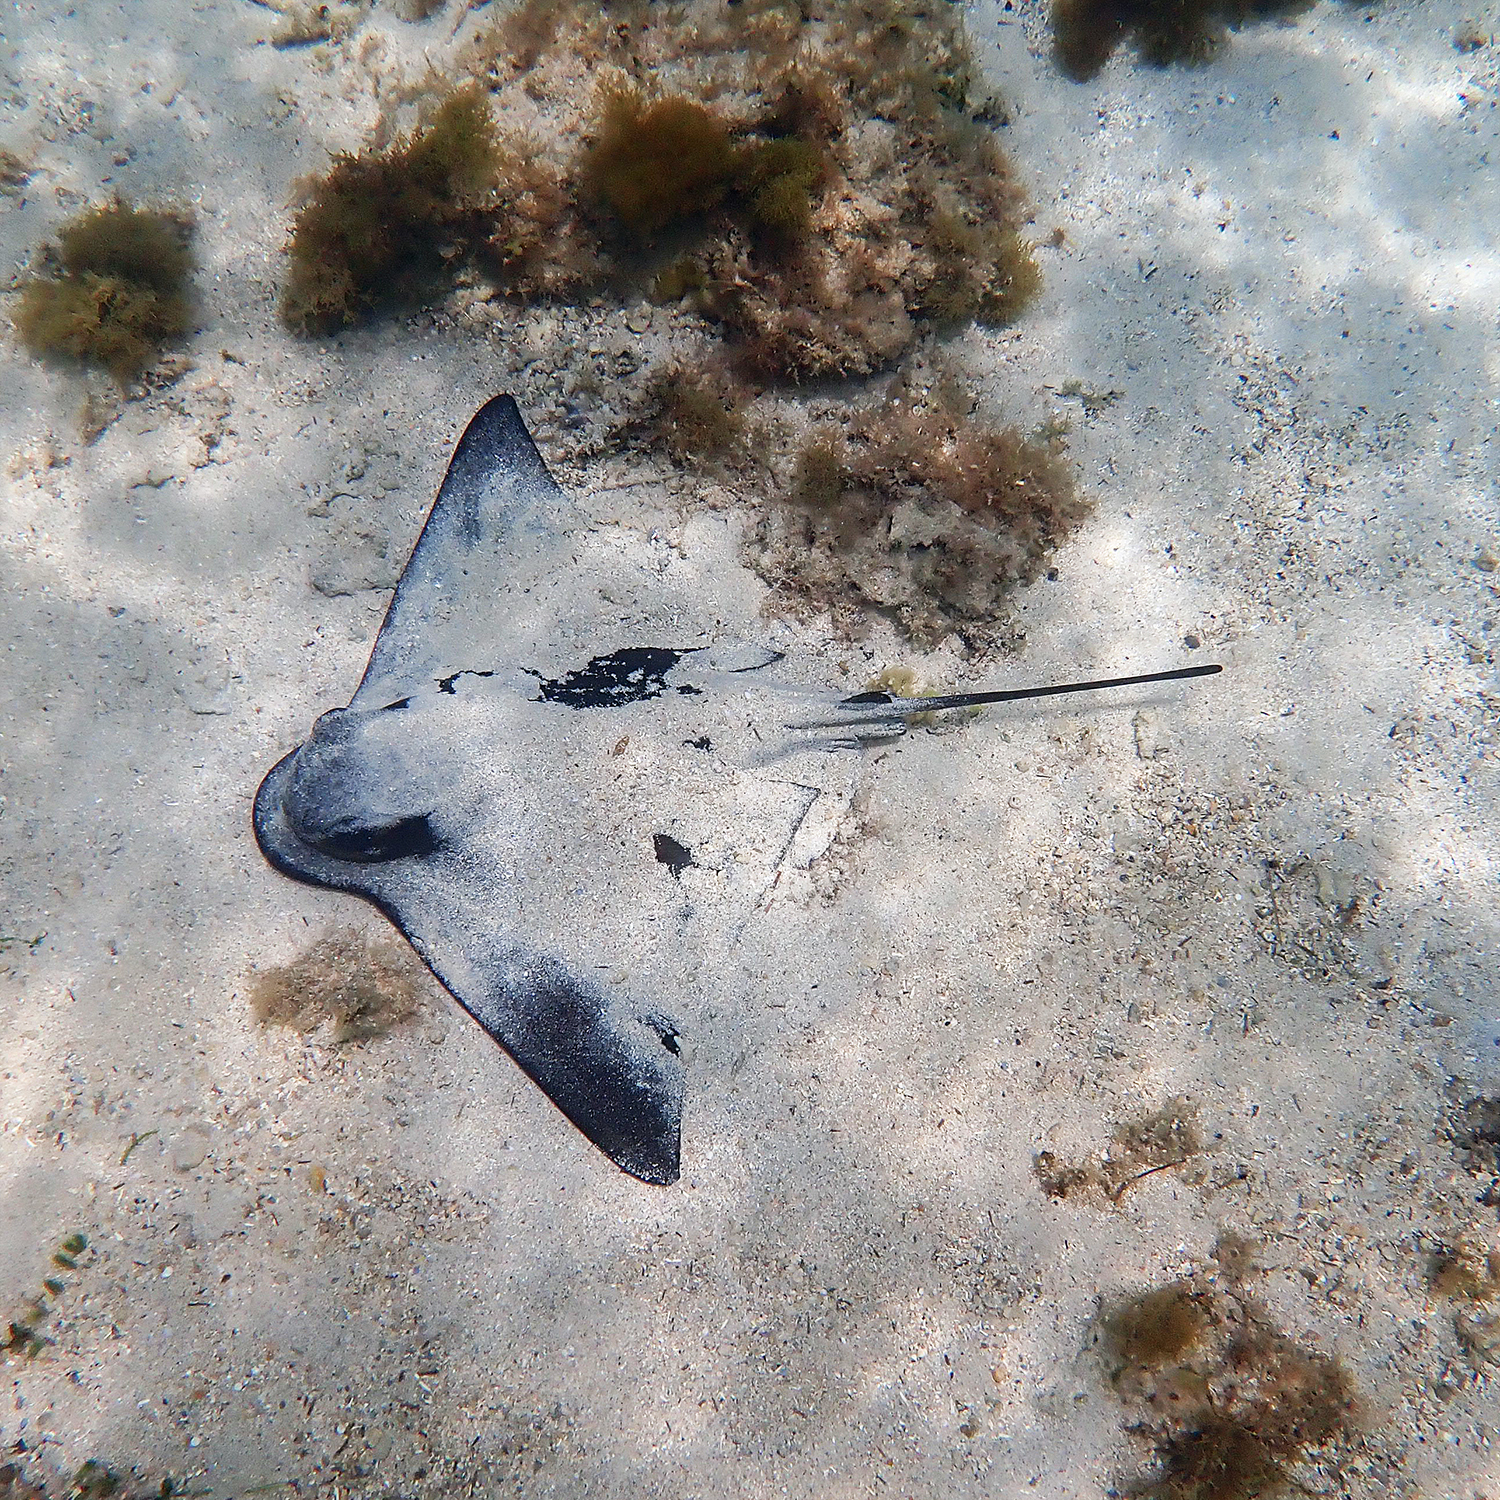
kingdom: Animalia
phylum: Chordata
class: Elasmobranchii
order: Myliobatiformes
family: Myliobatidae
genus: Myliobatis
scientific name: Myliobatis tenuicaudatus
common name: Eagle ray
